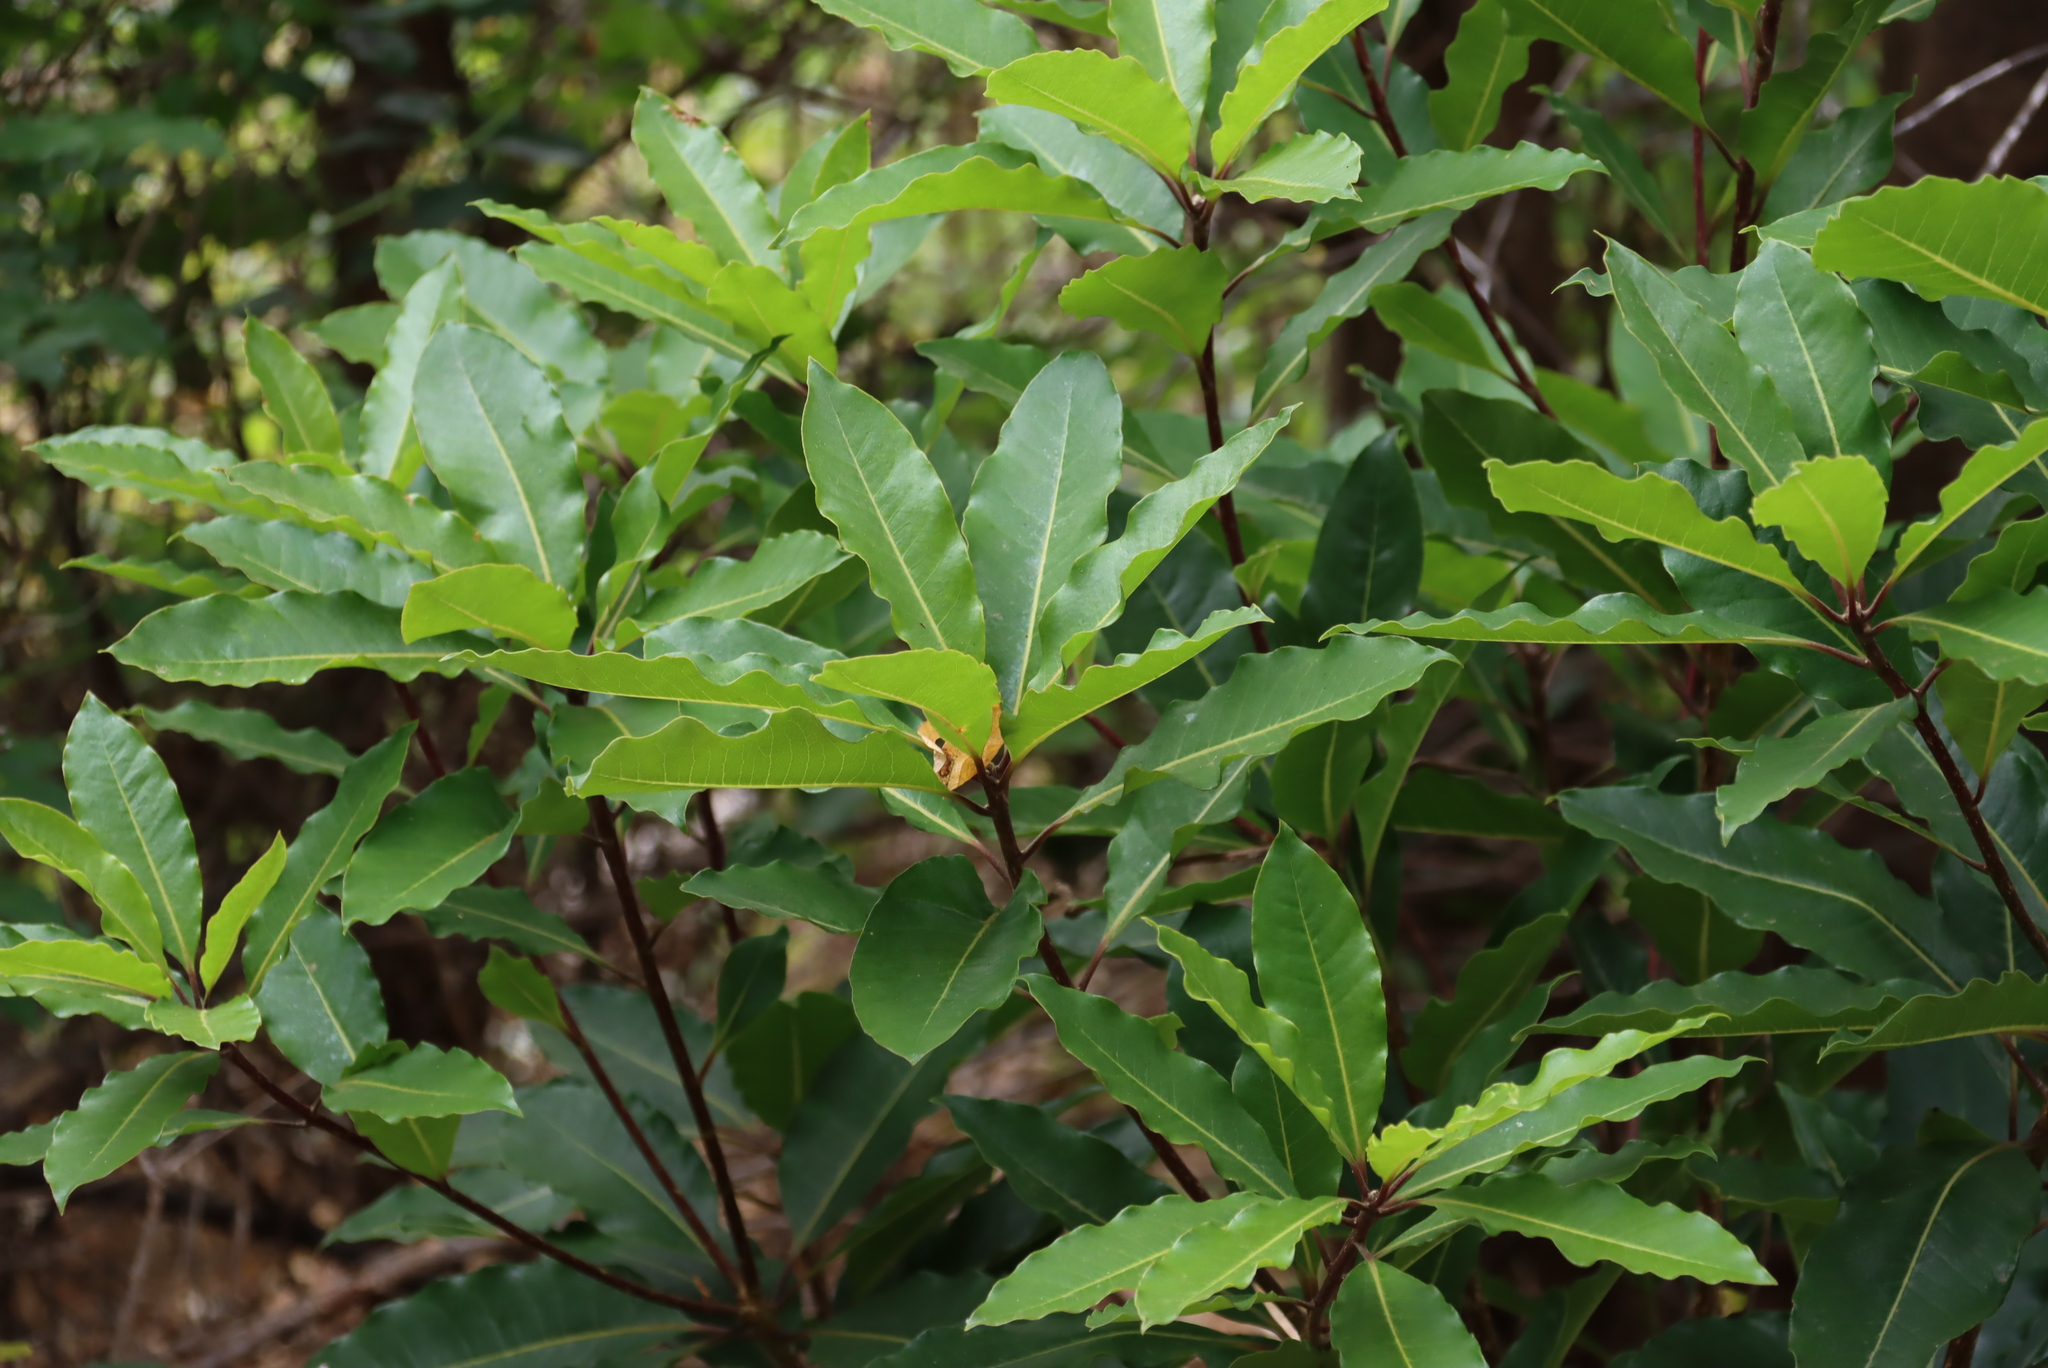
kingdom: Plantae
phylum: Tracheophyta
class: Magnoliopsida
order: Apiales
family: Pittosporaceae
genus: Pittosporum
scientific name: Pittosporum undulatum
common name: Australian cheesewood
